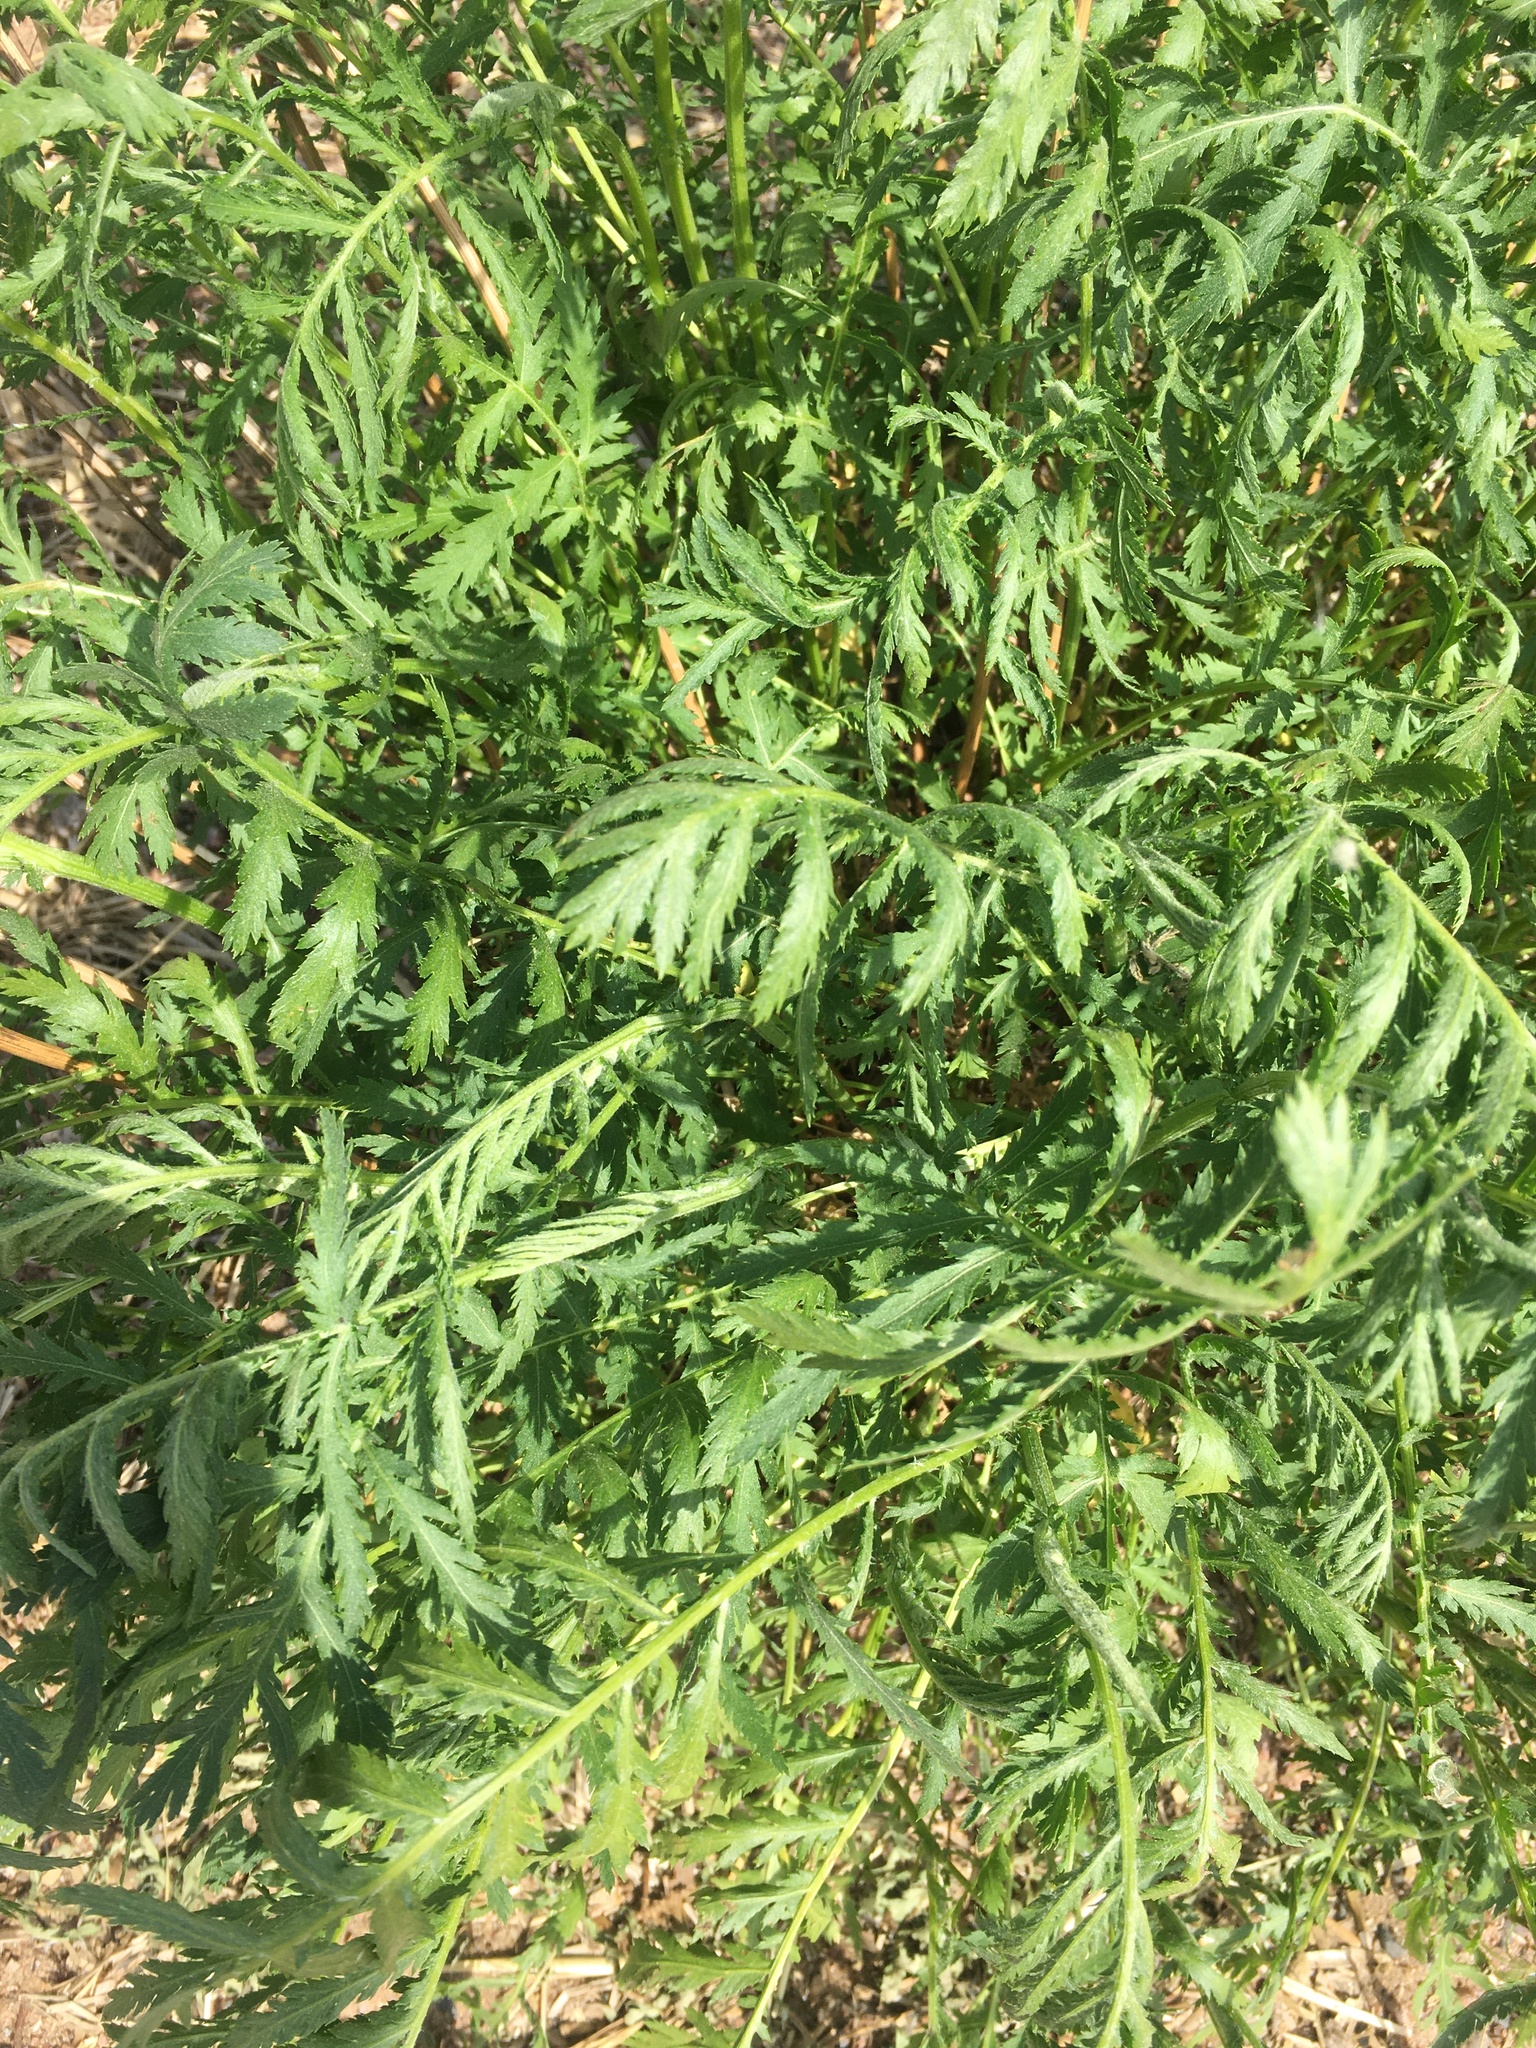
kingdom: Plantae
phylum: Tracheophyta
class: Magnoliopsida
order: Asterales
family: Asteraceae
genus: Tanacetum
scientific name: Tanacetum vulgare
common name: Common tansy
